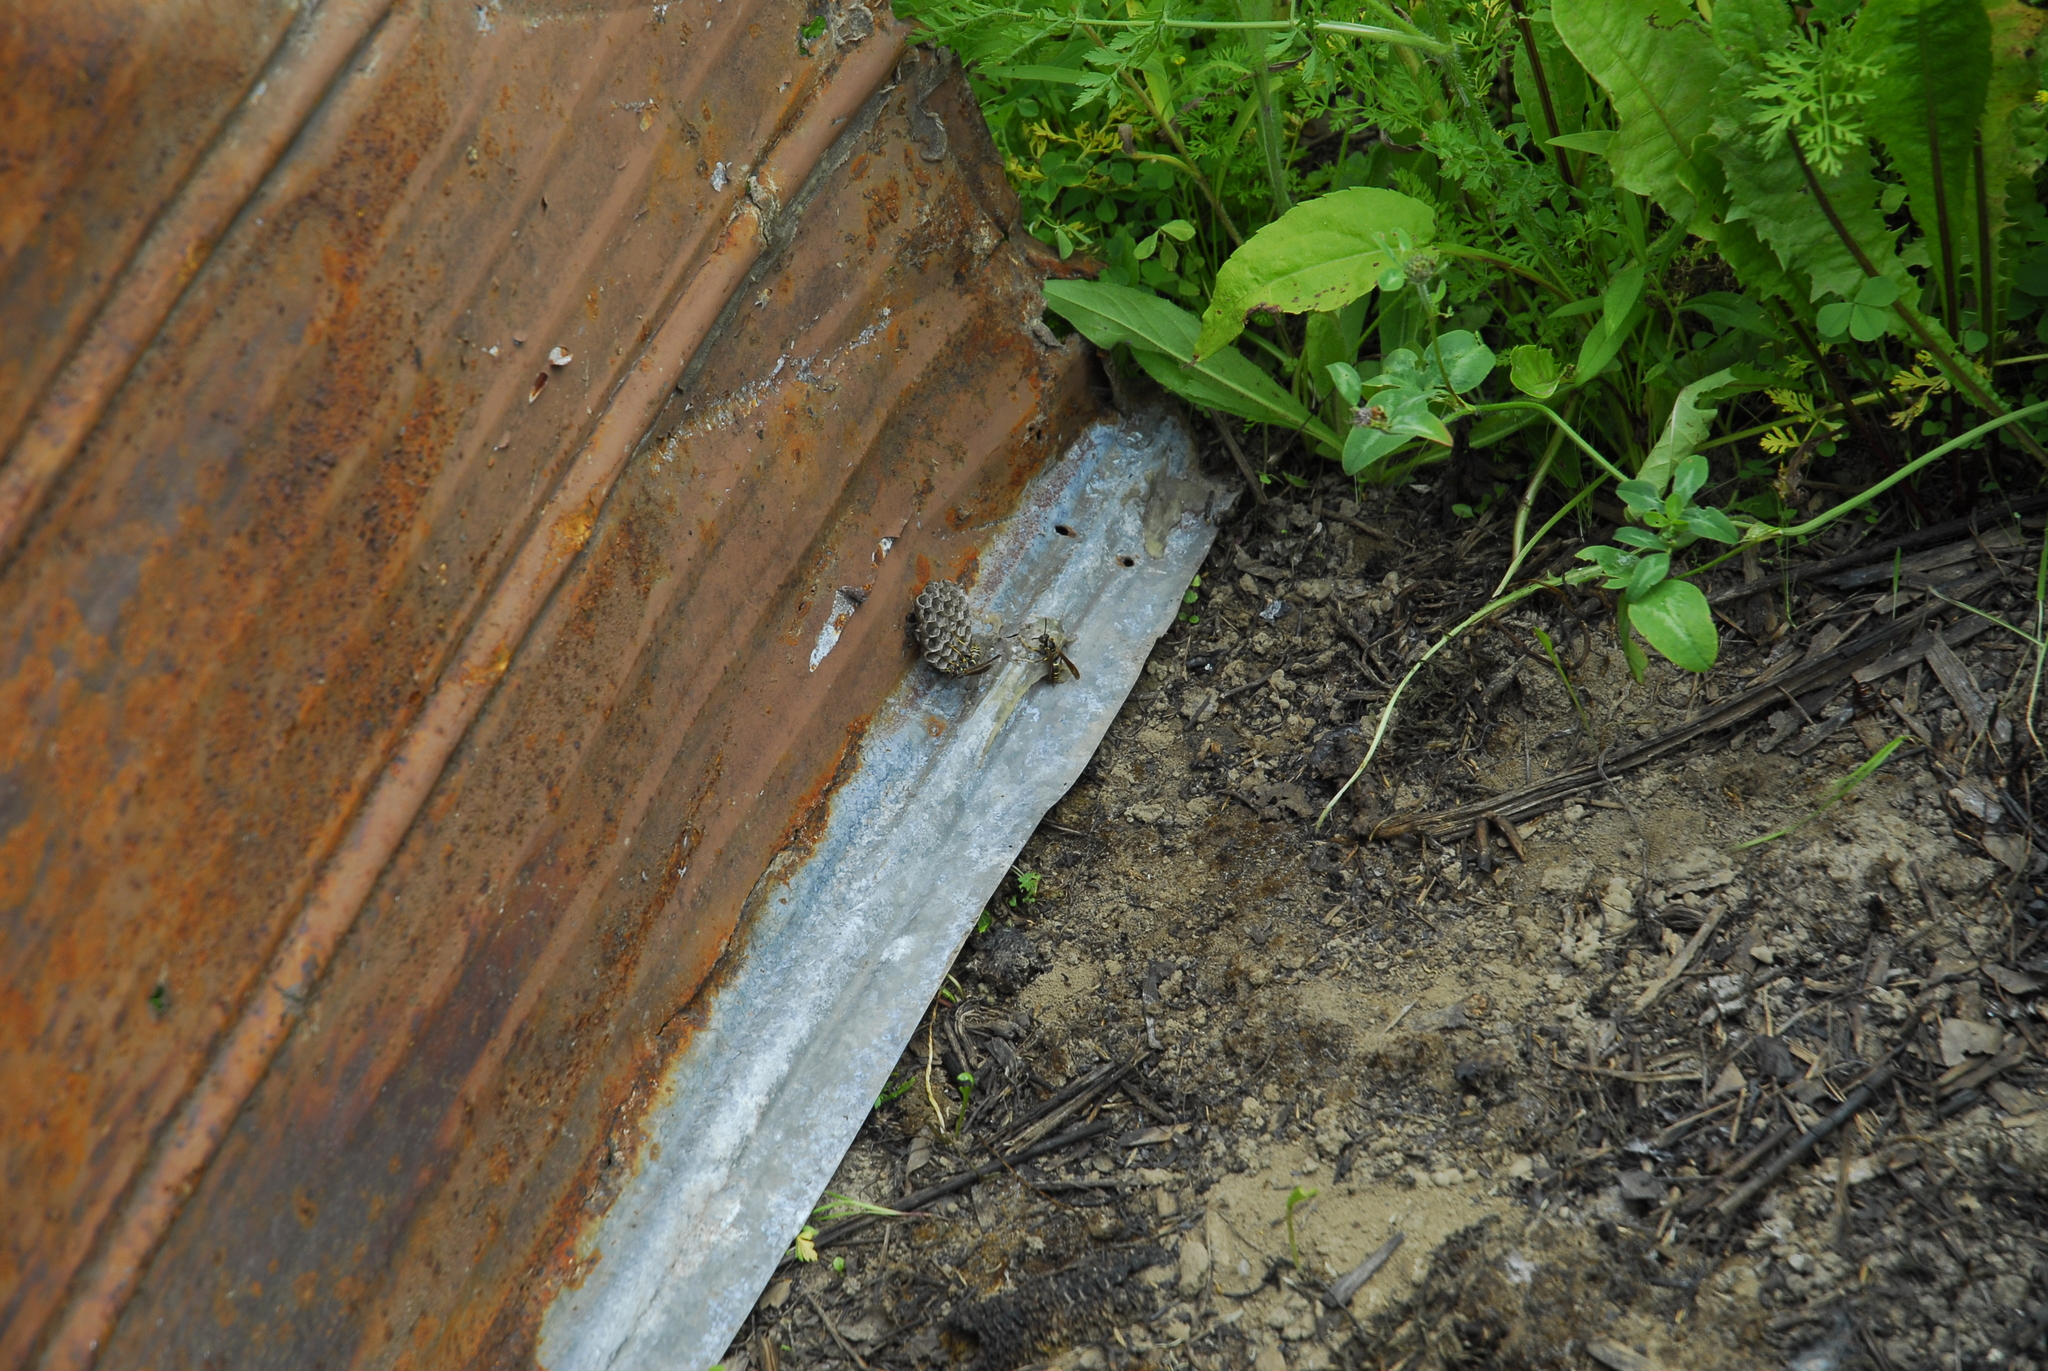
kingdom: Animalia
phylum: Arthropoda
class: Insecta
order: Hymenoptera
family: Eumenidae
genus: Polistes
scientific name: Polistes fuscatus
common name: Dark paper wasp
